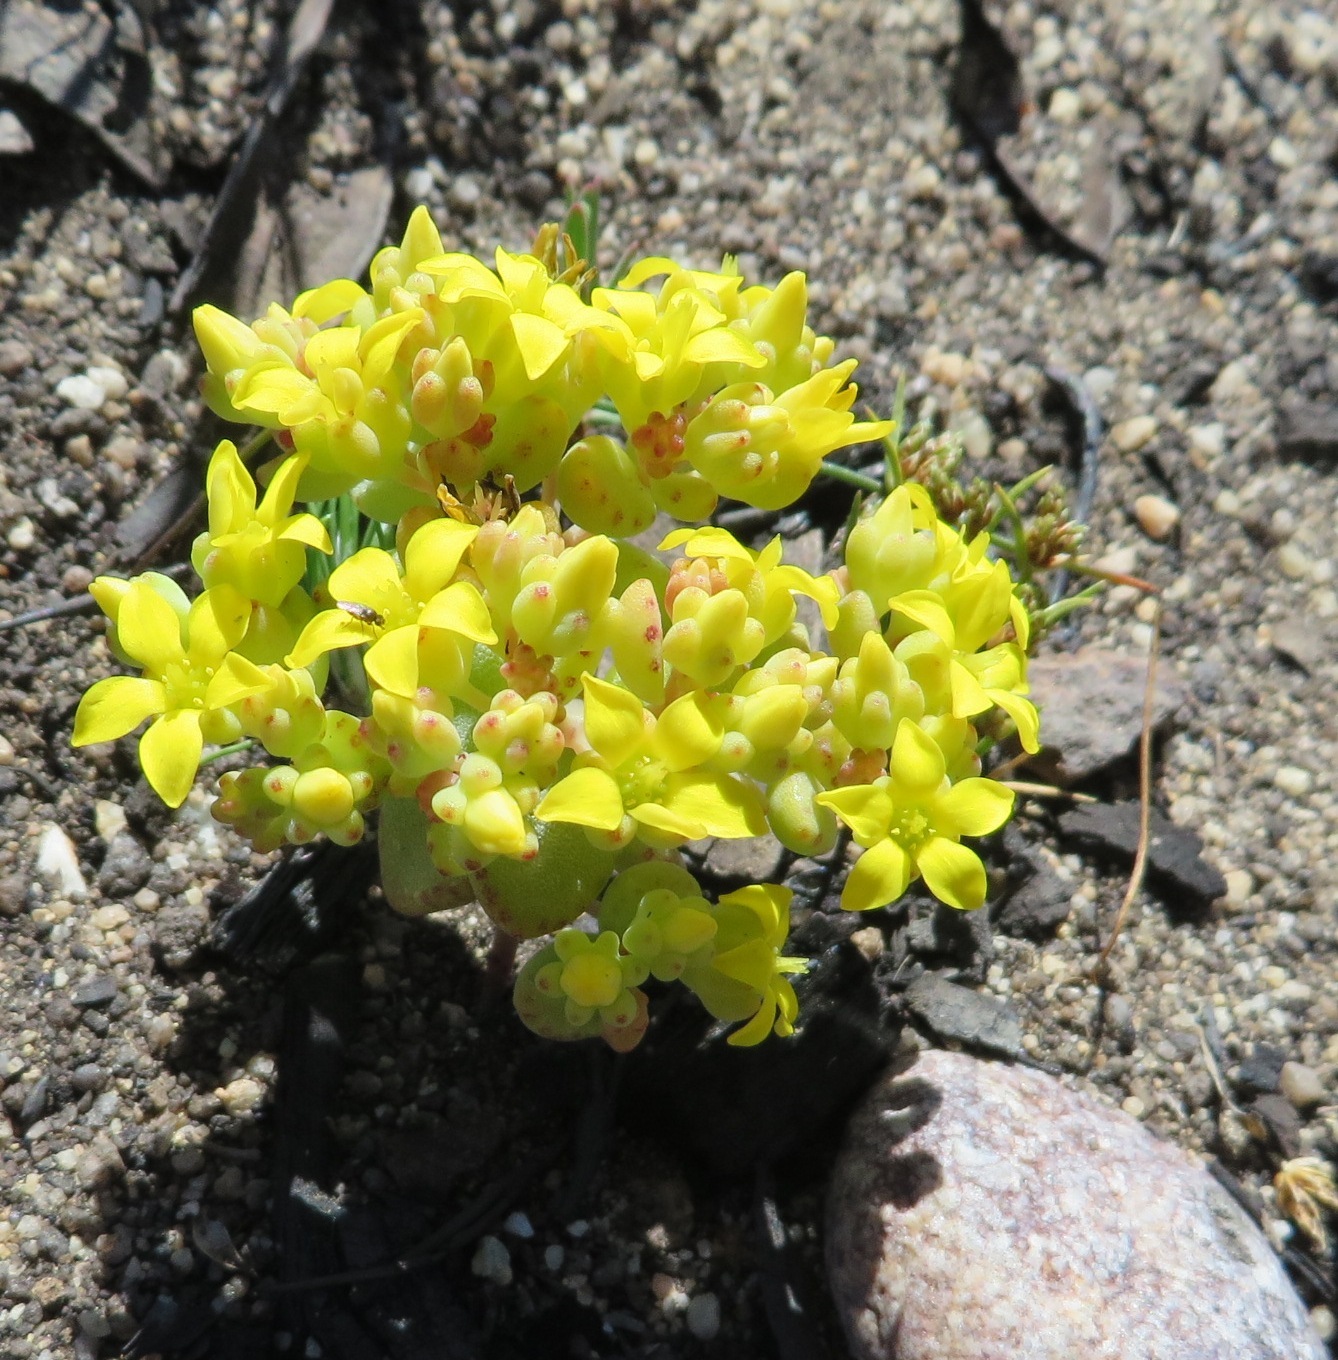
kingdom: Plantae
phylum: Tracheophyta
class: Magnoliopsida
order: Saxifragales
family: Crassulaceae
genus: Crassula
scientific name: Crassula sebaeoides
